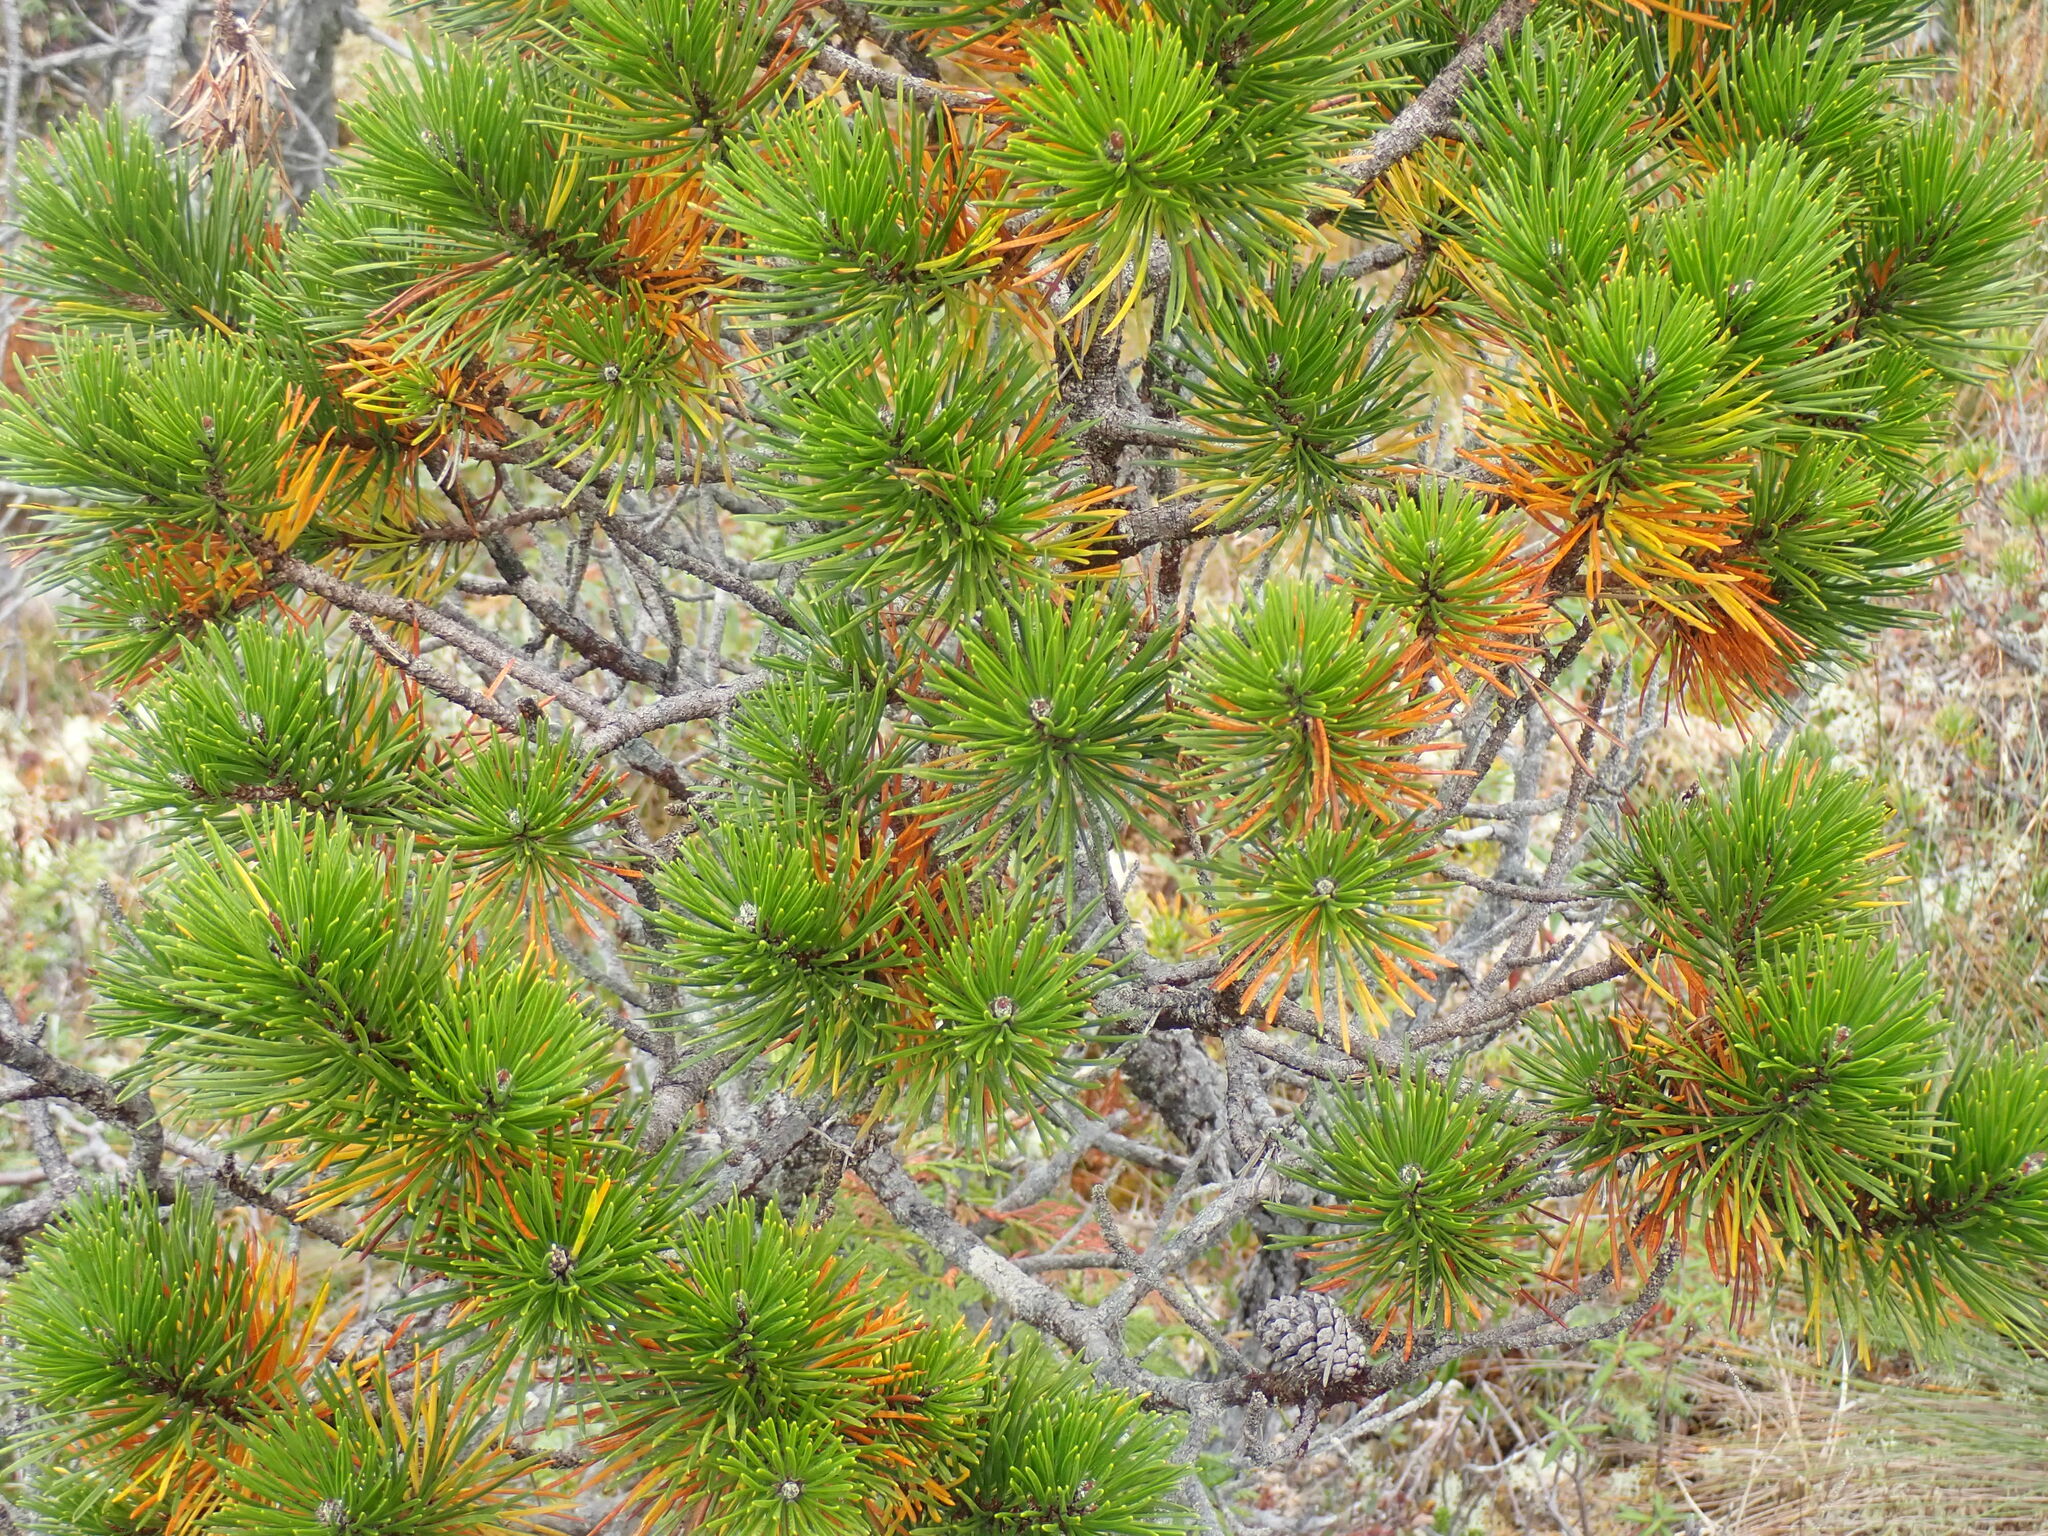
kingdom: Plantae
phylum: Tracheophyta
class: Pinopsida
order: Pinales
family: Pinaceae
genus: Pinus
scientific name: Pinus contorta
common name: Lodgepole pine
